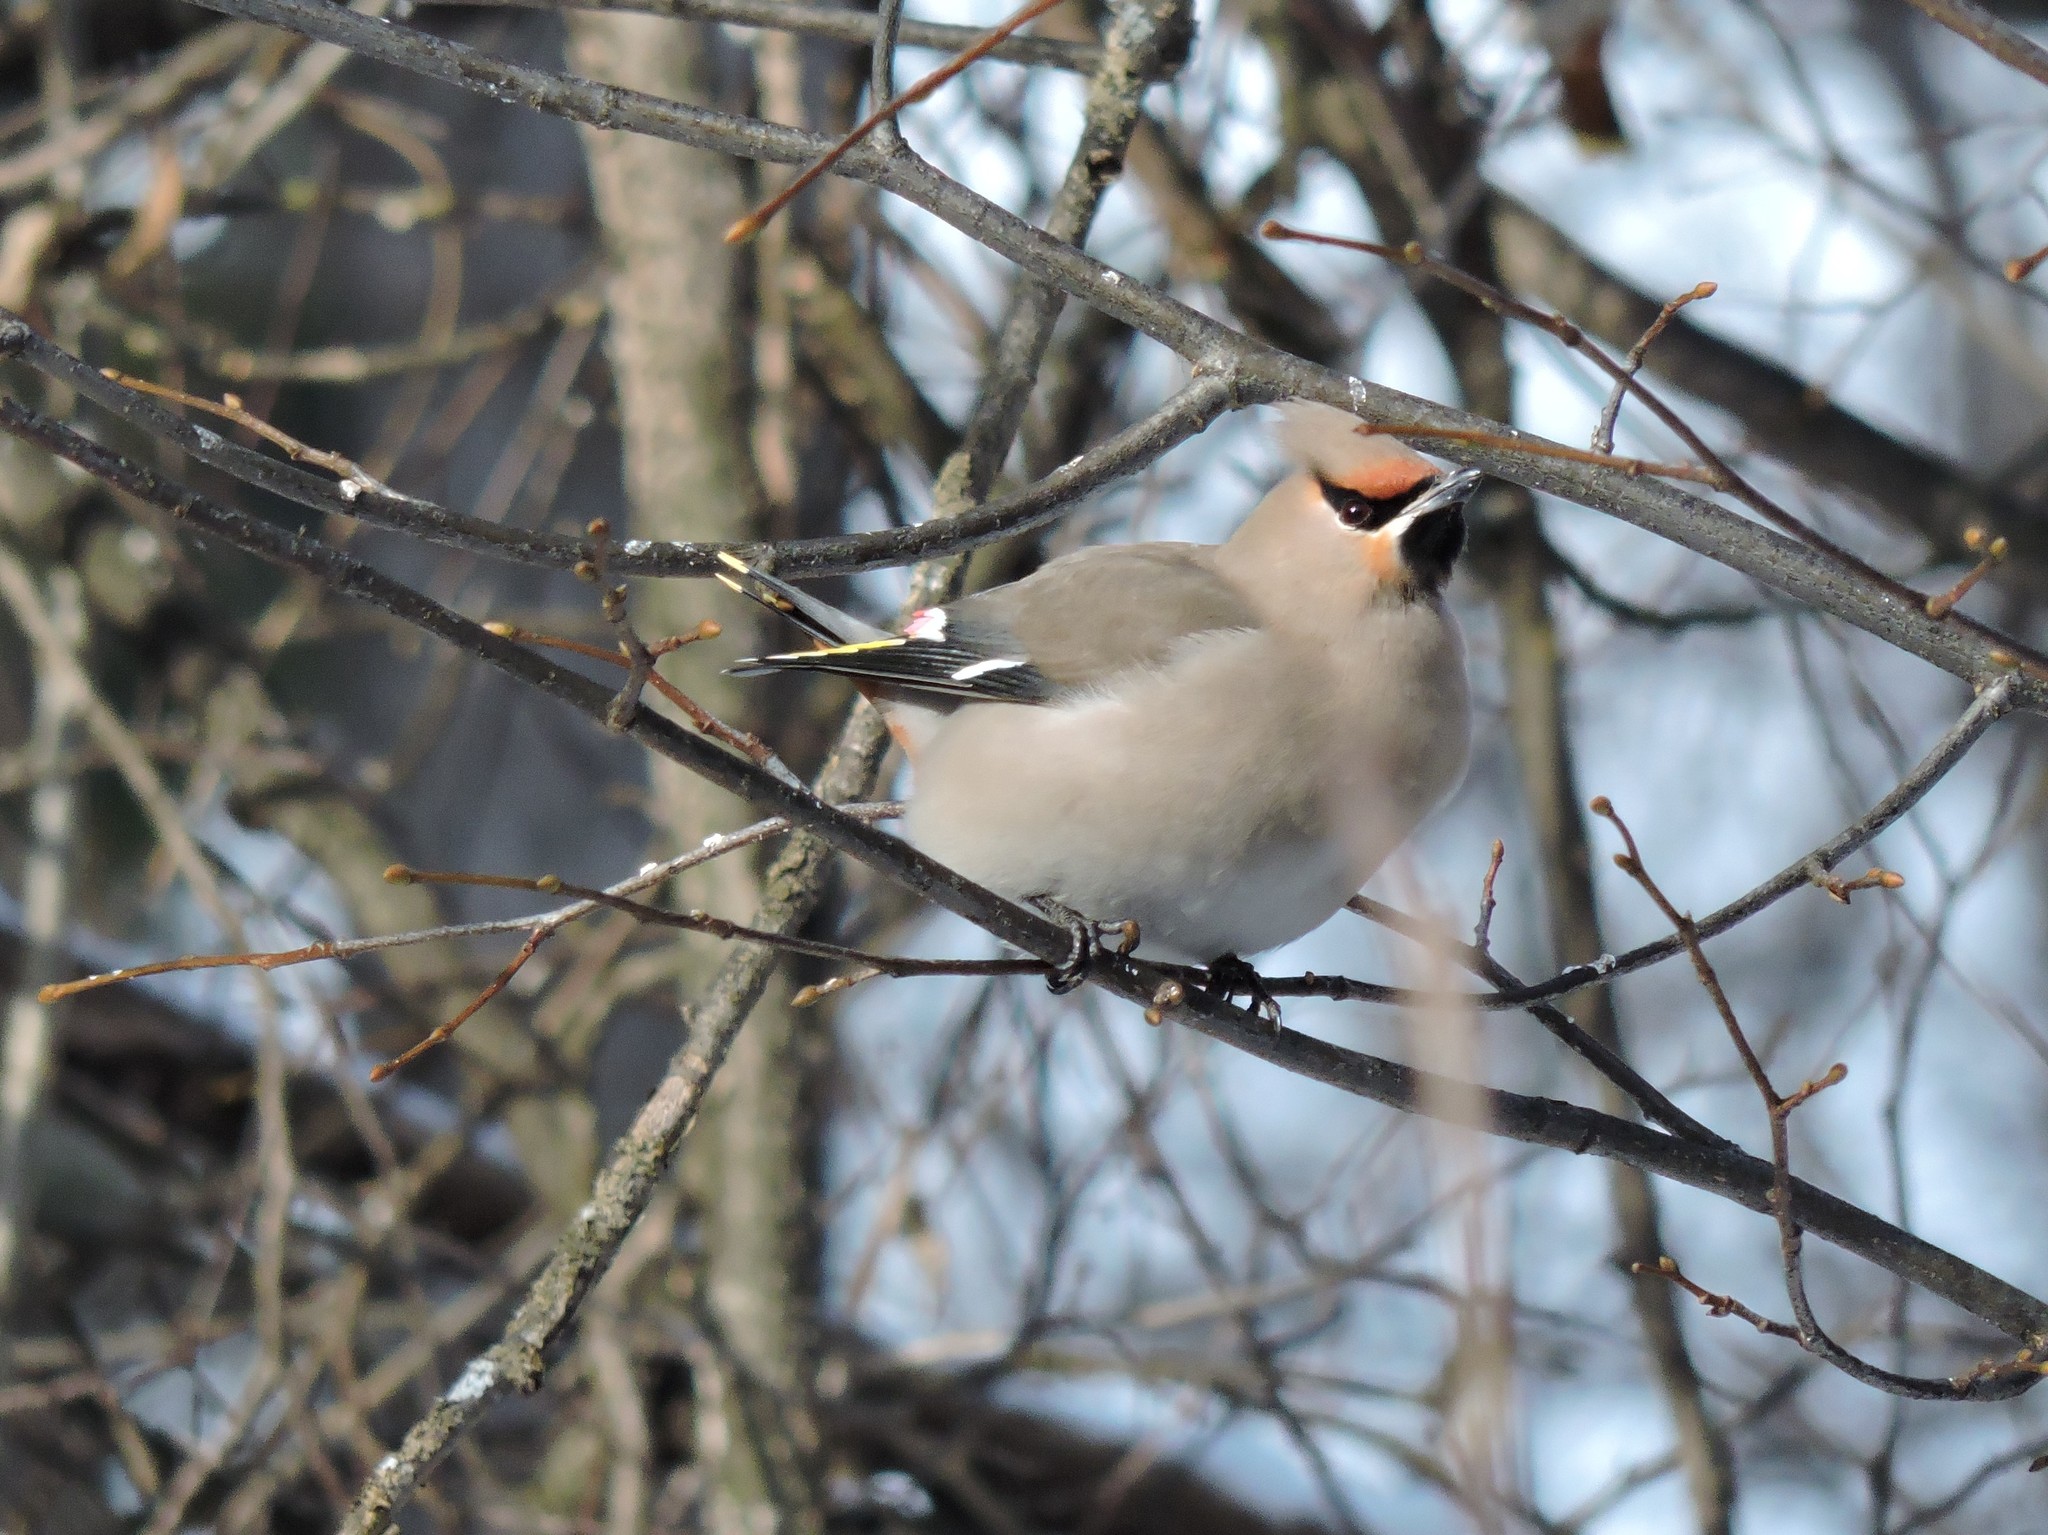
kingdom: Animalia
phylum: Chordata
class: Aves
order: Passeriformes
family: Bombycillidae
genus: Bombycilla
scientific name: Bombycilla garrulus
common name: Bohemian waxwing
